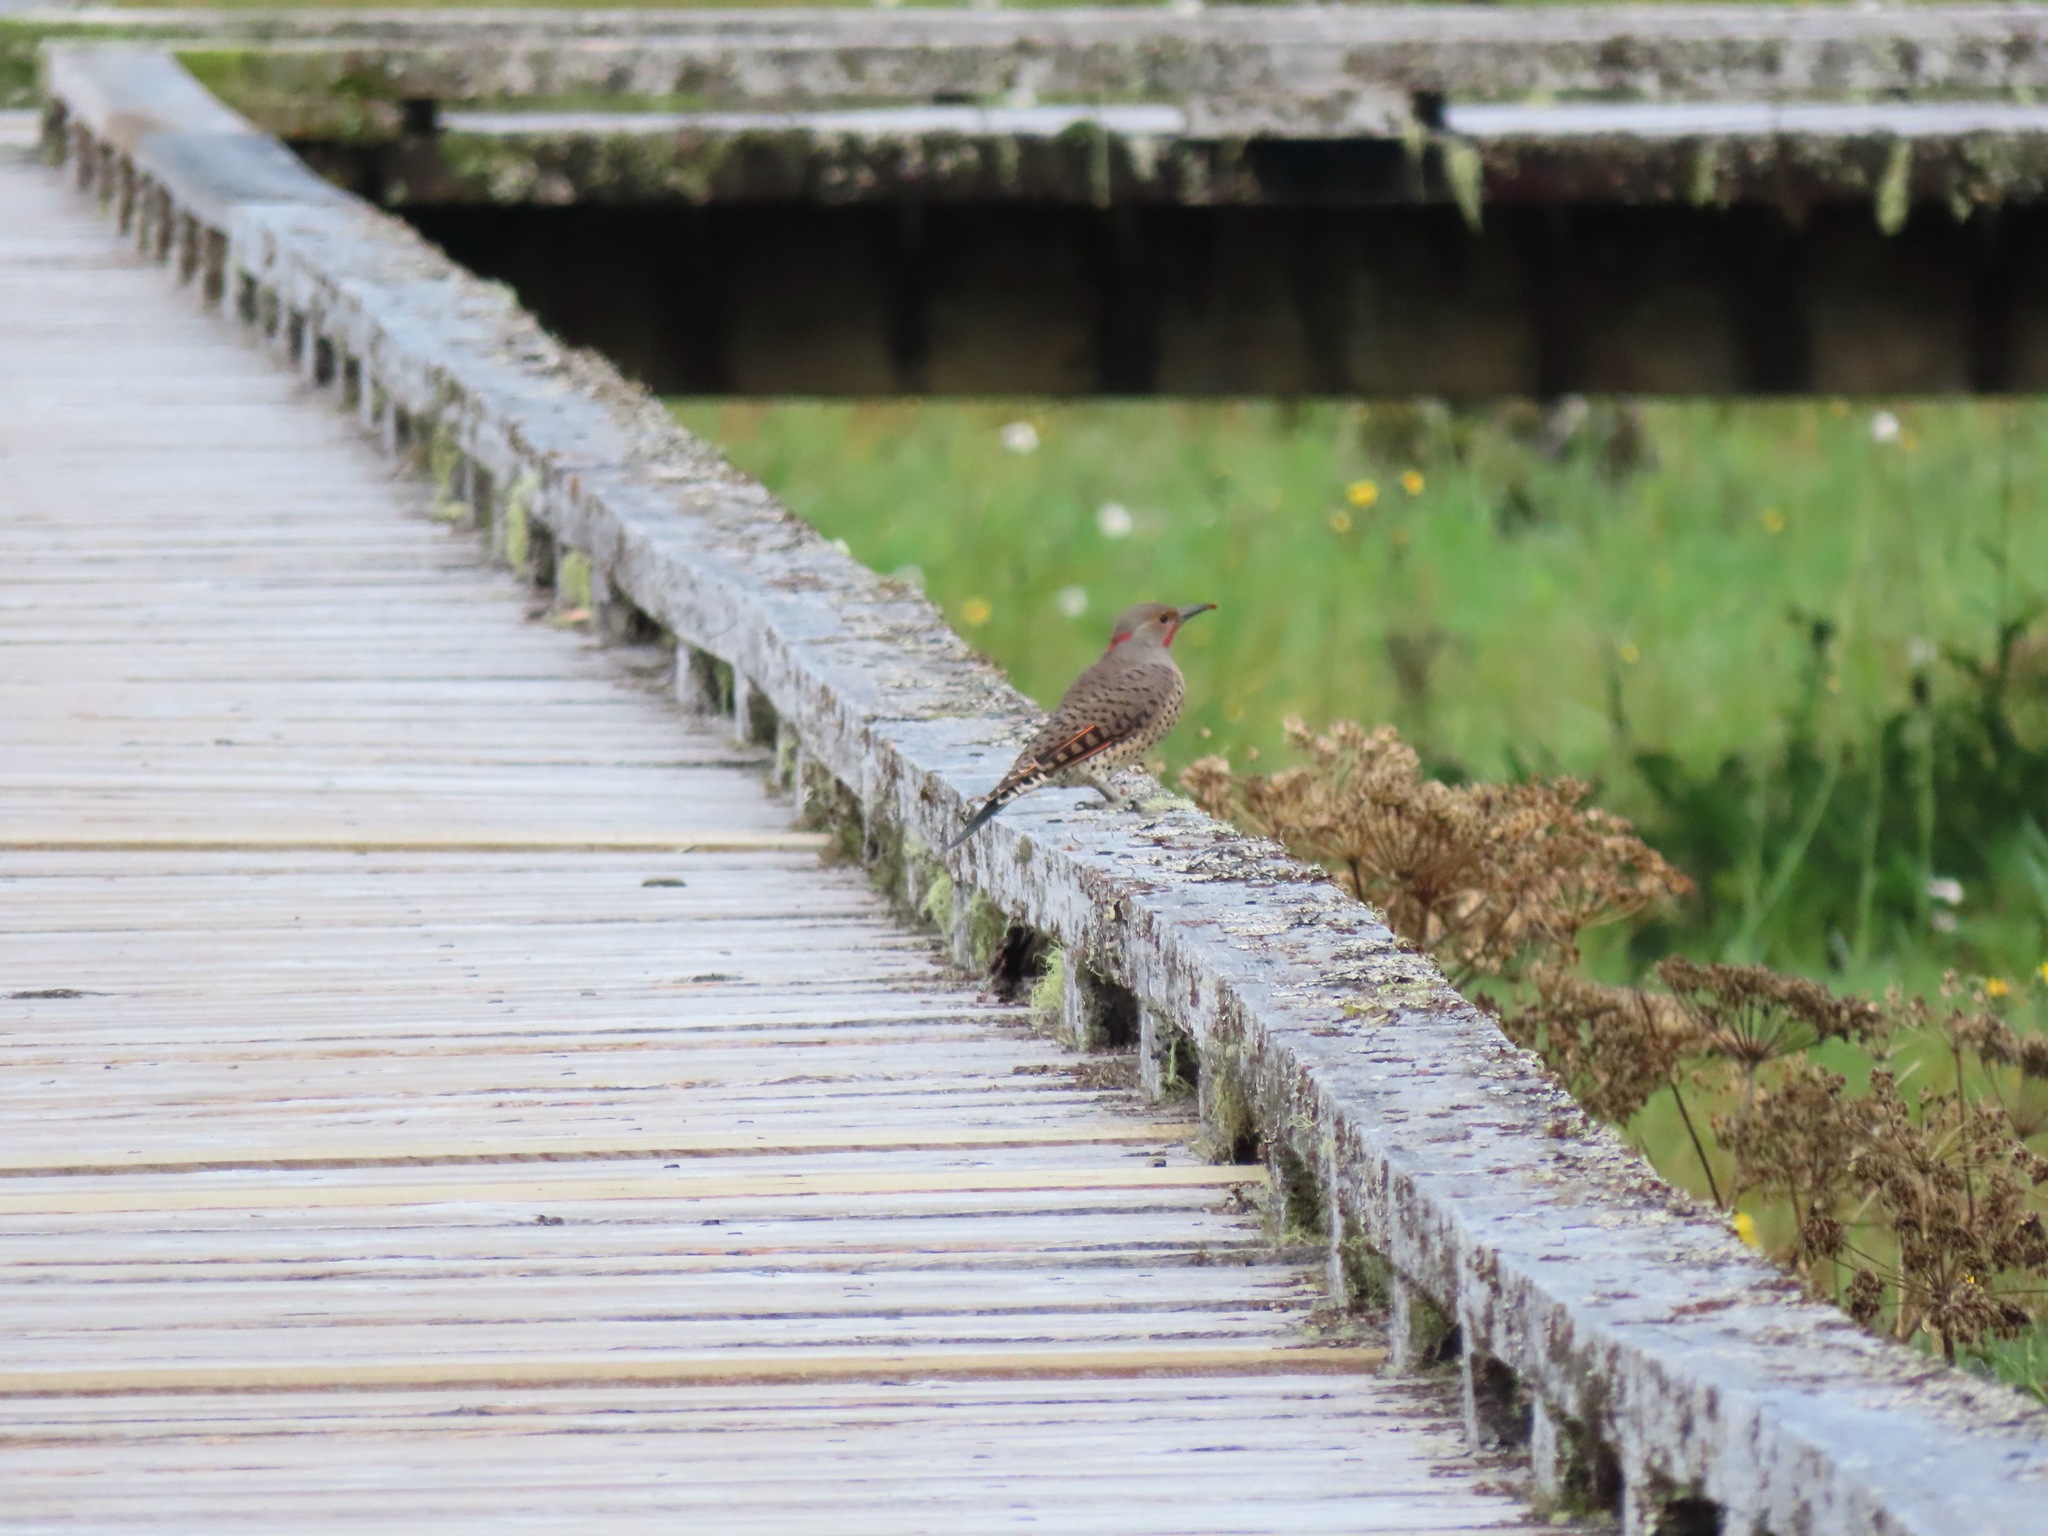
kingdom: Animalia
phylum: Chordata
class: Aves
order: Piciformes
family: Picidae
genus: Colaptes
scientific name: Colaptes auratus
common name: Northern flicker
